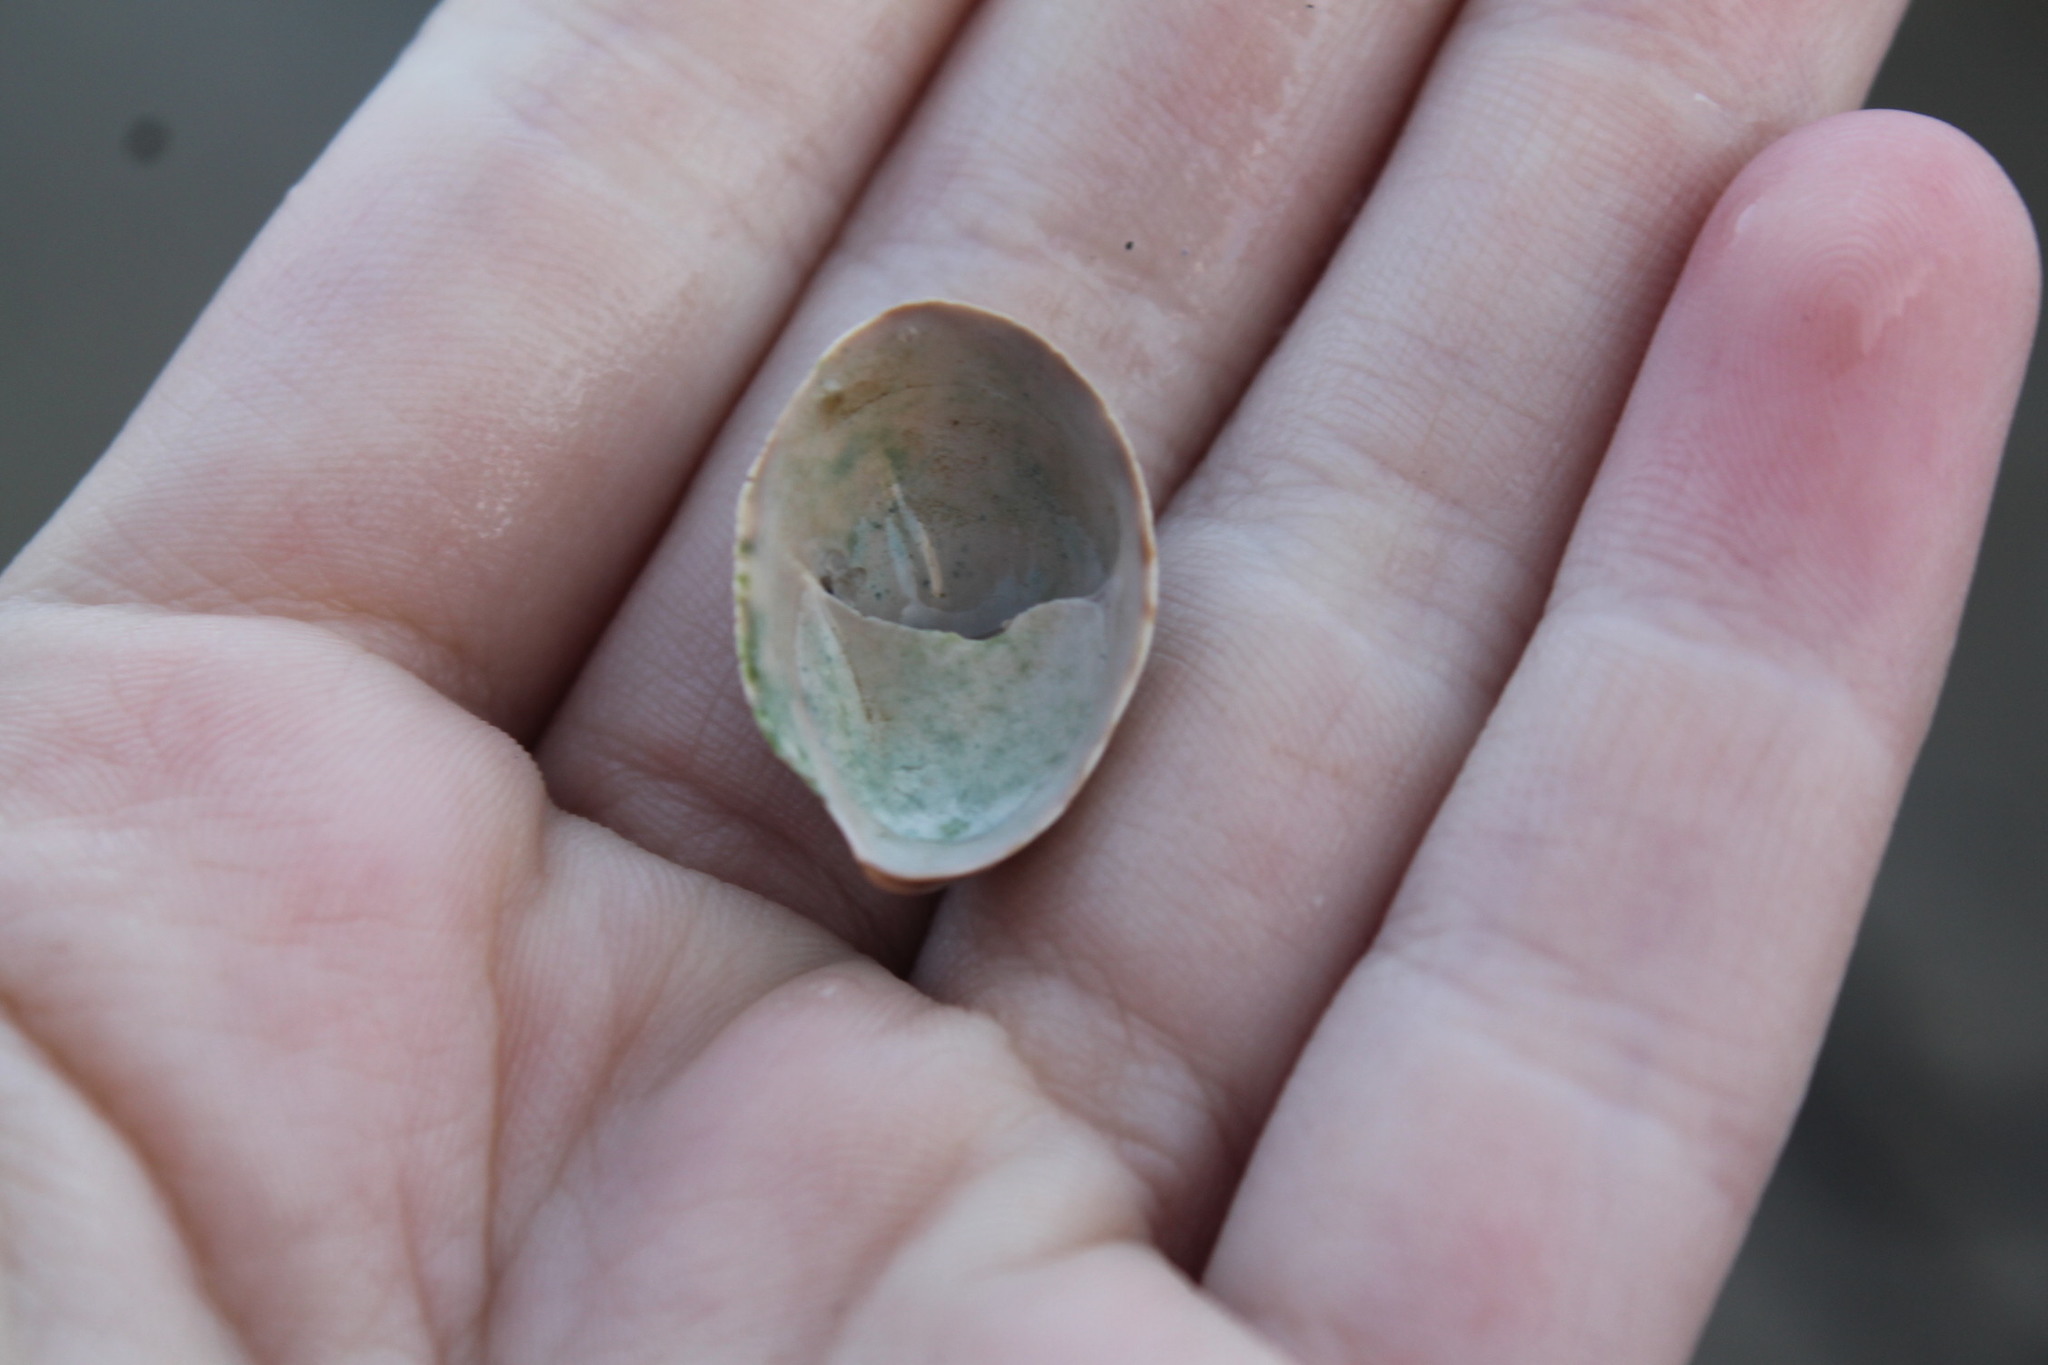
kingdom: Animalia
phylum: Mollusca
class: Gastropoda
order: Littorinimorpha
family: Calyptraeidae
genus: Crepidula
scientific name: Crepidula fornicata
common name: Slipper limpet
